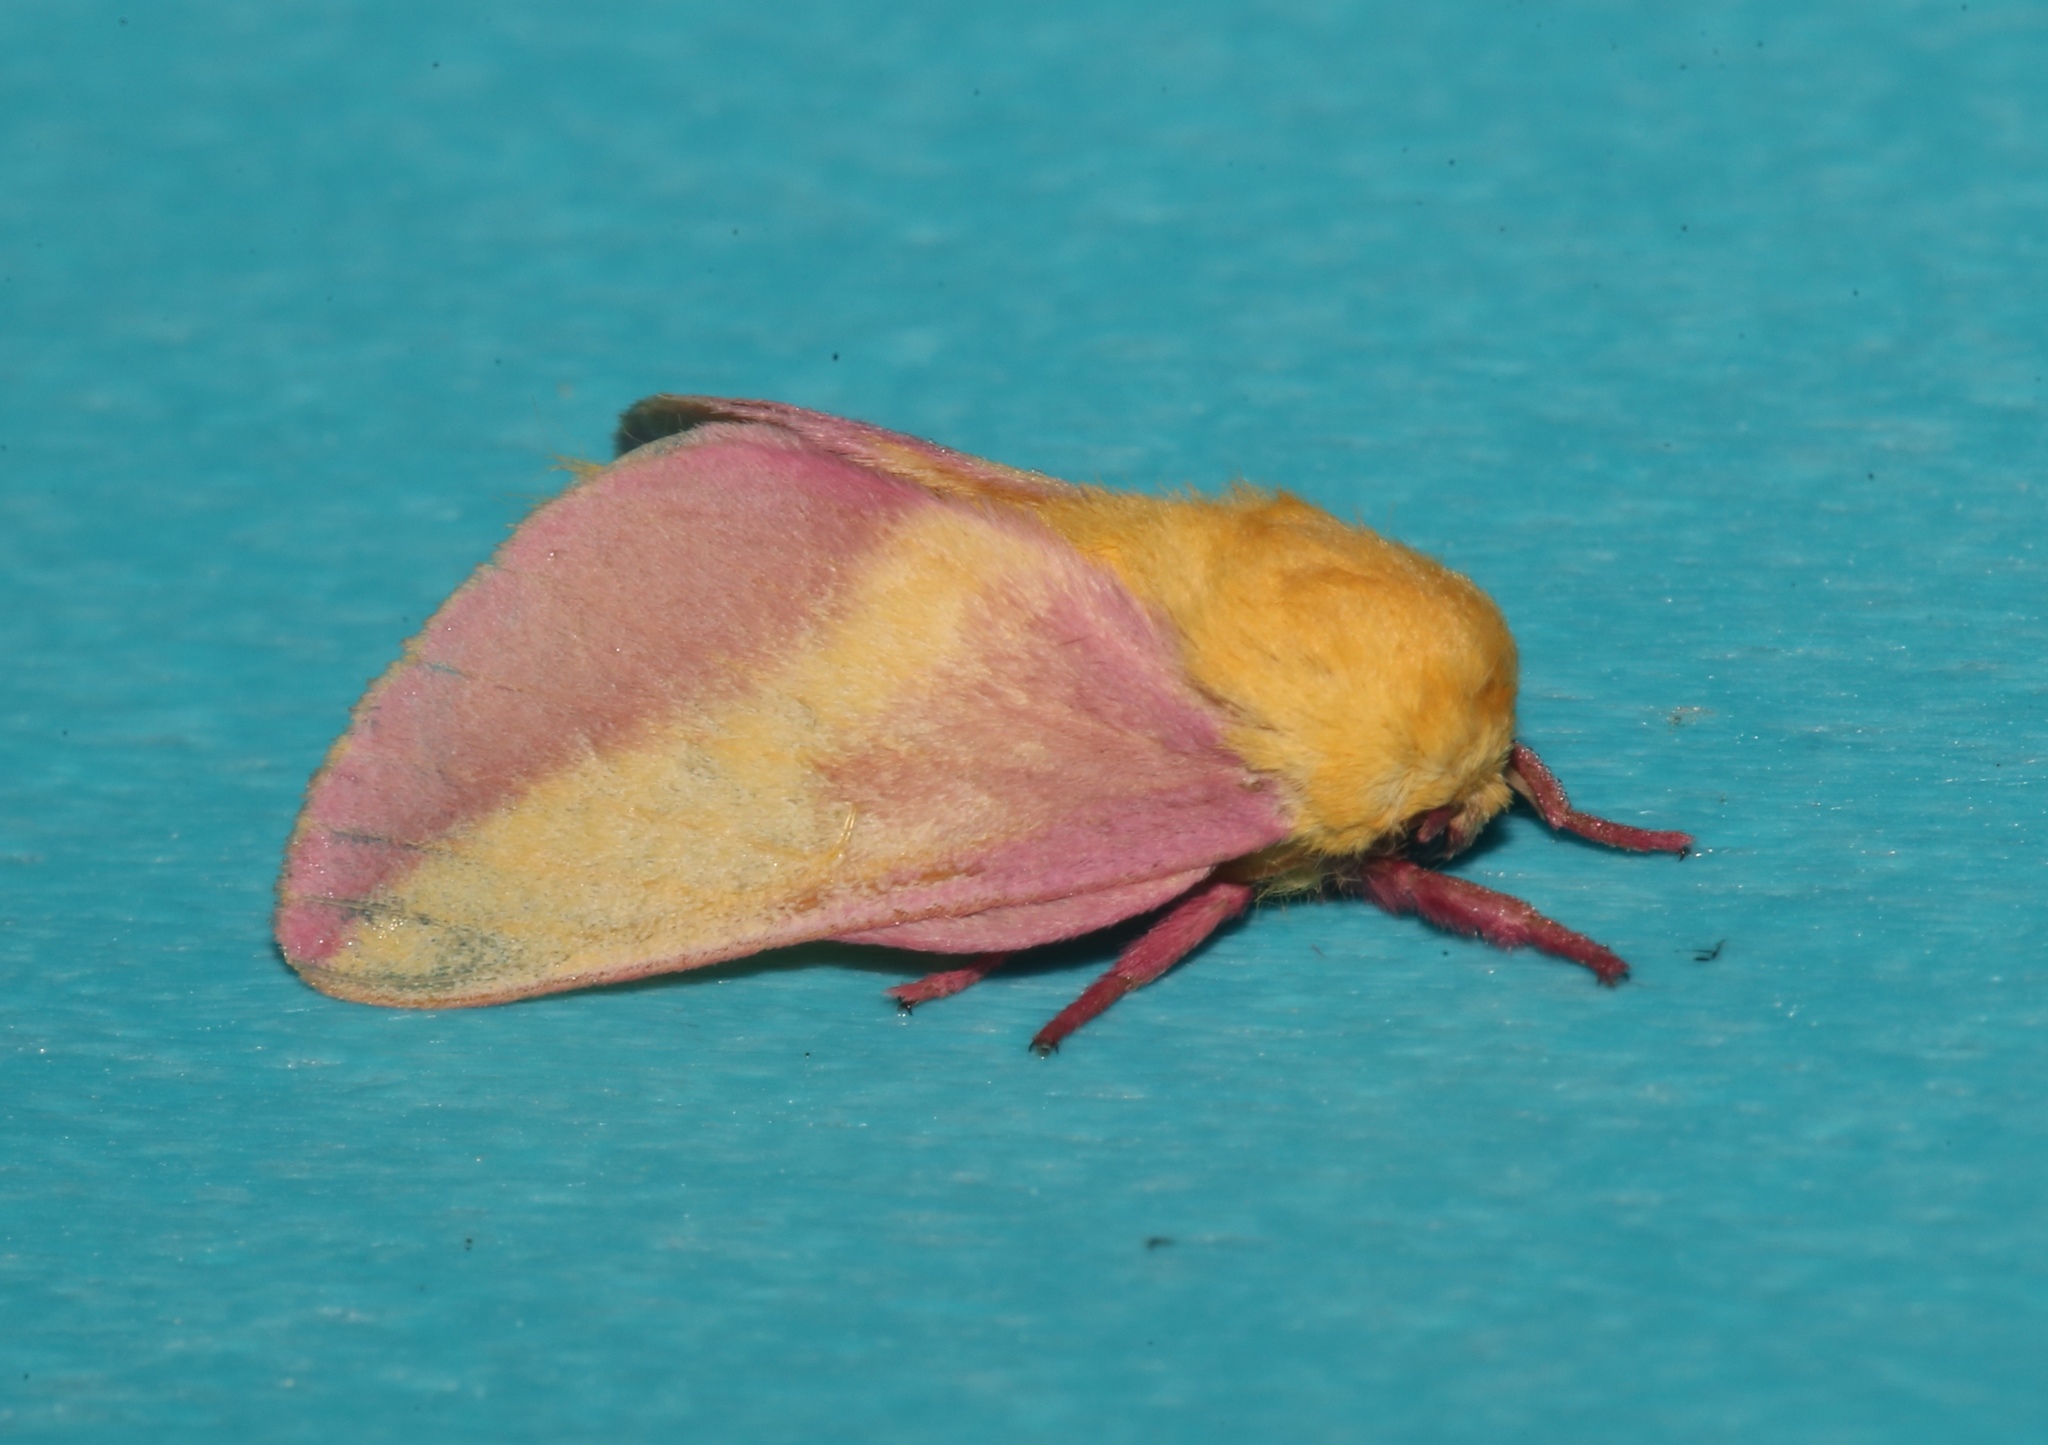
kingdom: Animalia
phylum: Arthropoda
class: Insecta
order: Lepidoptera
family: Saturniidae
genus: Dryocampa
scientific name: Dryocampa rubicunda
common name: Rosy maple moth
